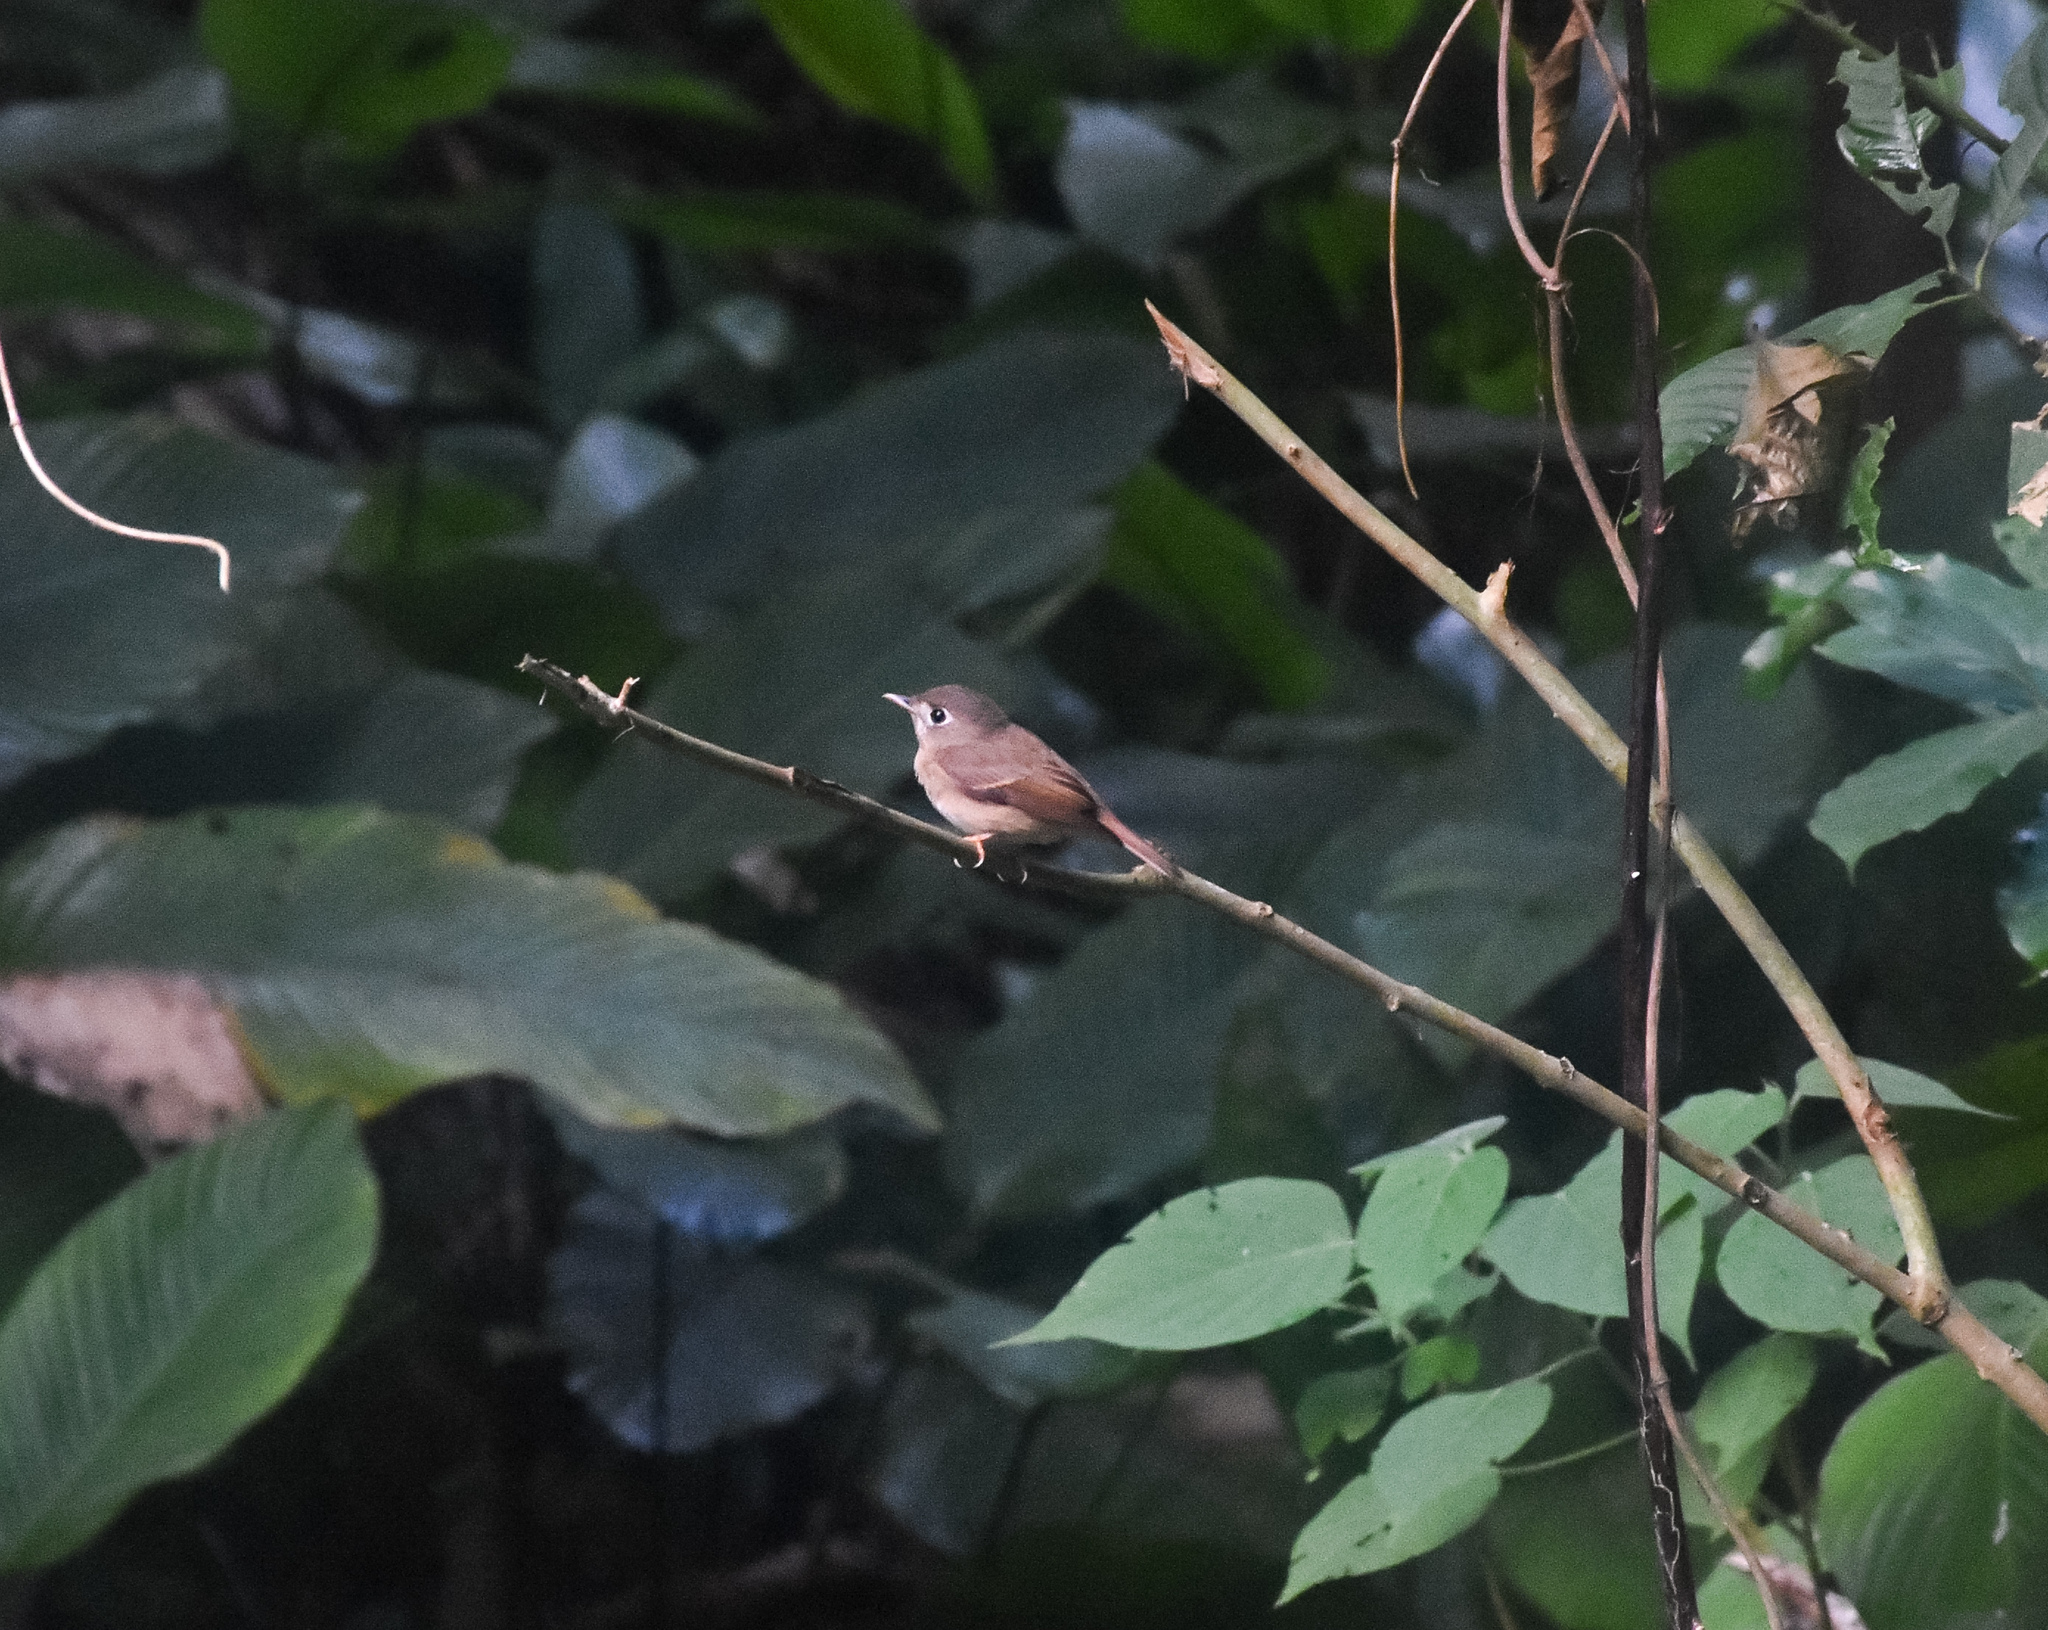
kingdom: Animalia
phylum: Chordata
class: Aves
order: Passeriformes
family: Muscicapidae
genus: Muscicapa
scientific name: Muscicapa muttui
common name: Brown-breasted flycatcher
